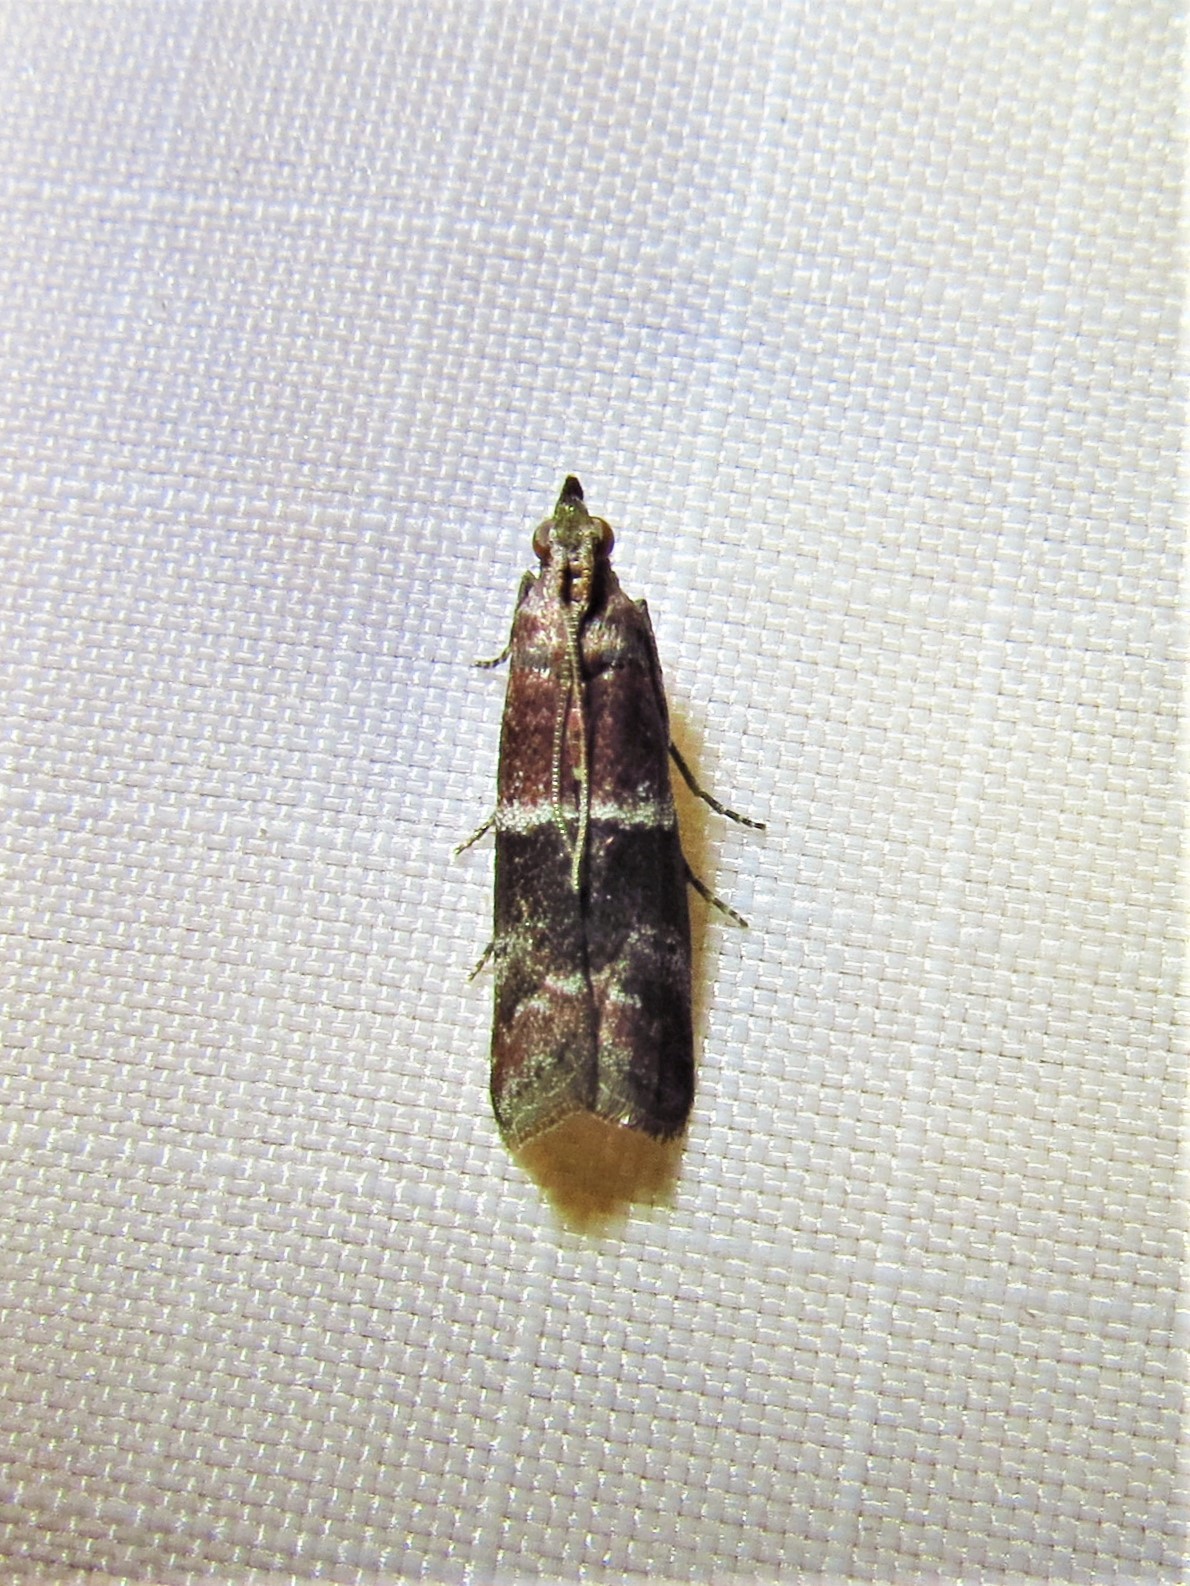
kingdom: Animalia
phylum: Arthropoda
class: Insecta
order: Lepidoptera
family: Pyralidae
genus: Moodna
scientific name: Moodna ostrinella
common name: Darker moodna moth
